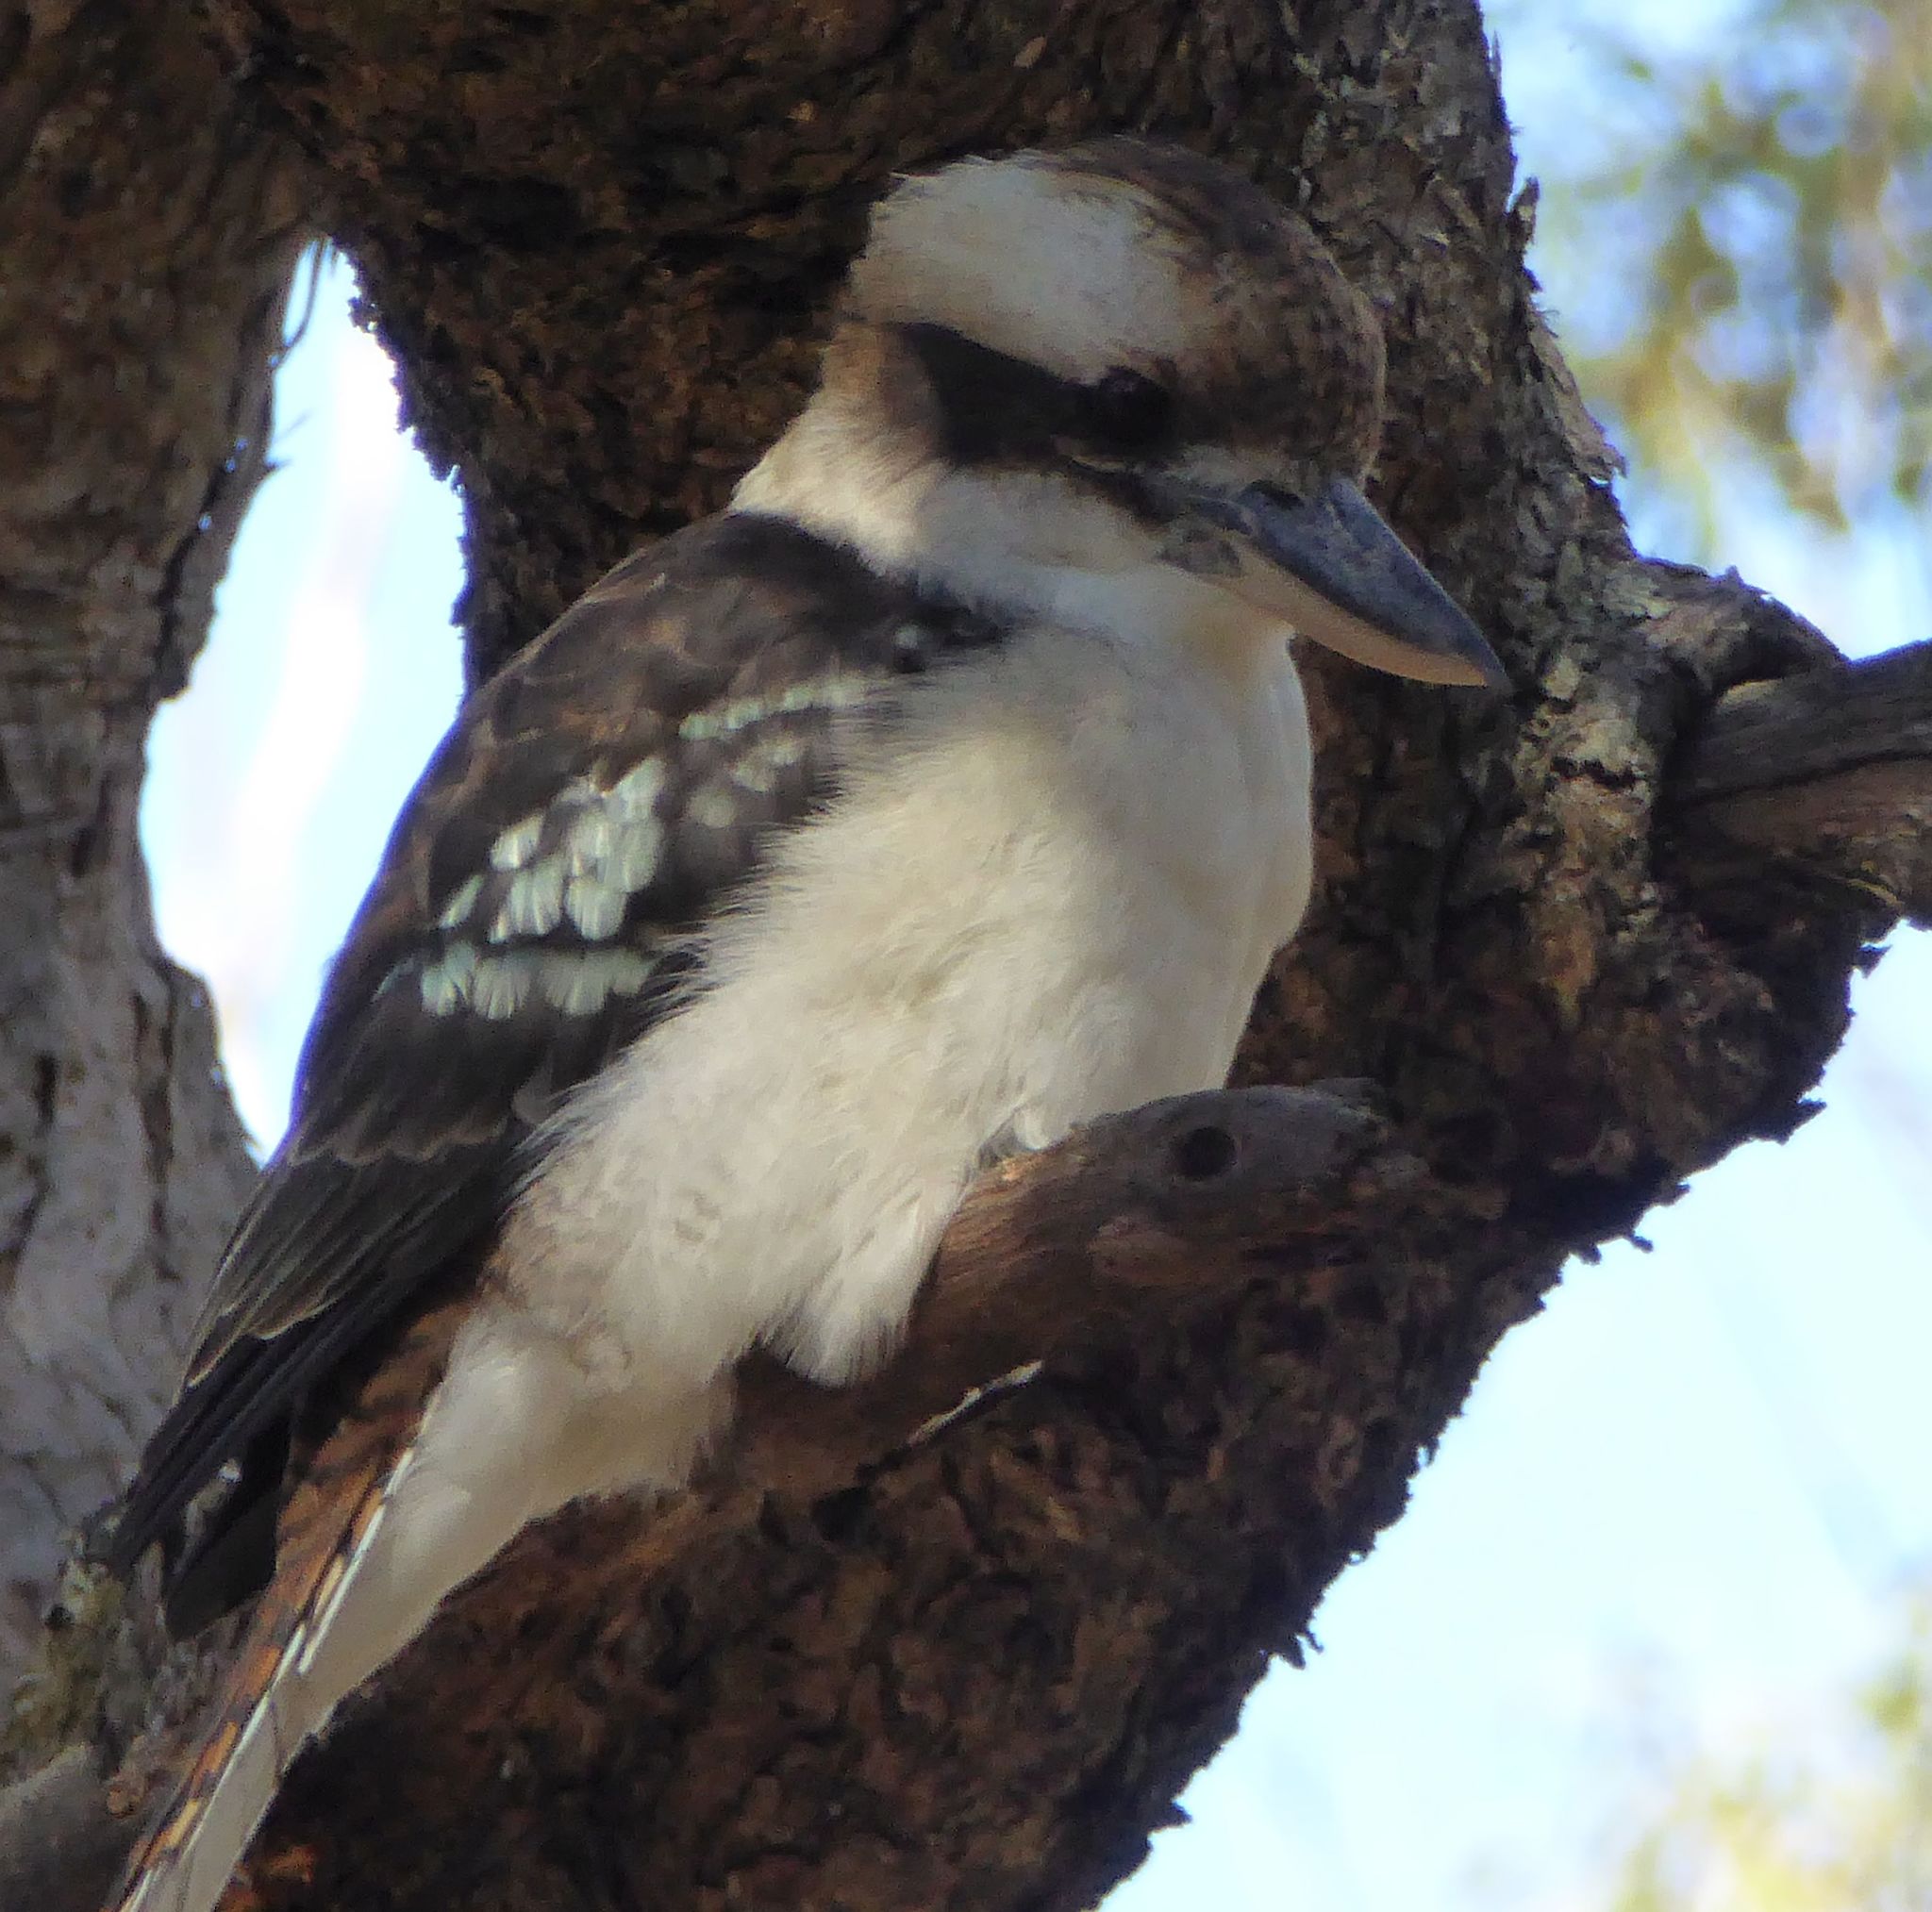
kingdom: Animalia
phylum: Chordata
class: Aves
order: Coraciiformes
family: Alcedinidae
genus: Dacelo
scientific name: Dacelo novaeguineae
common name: Laughing kookaburra
